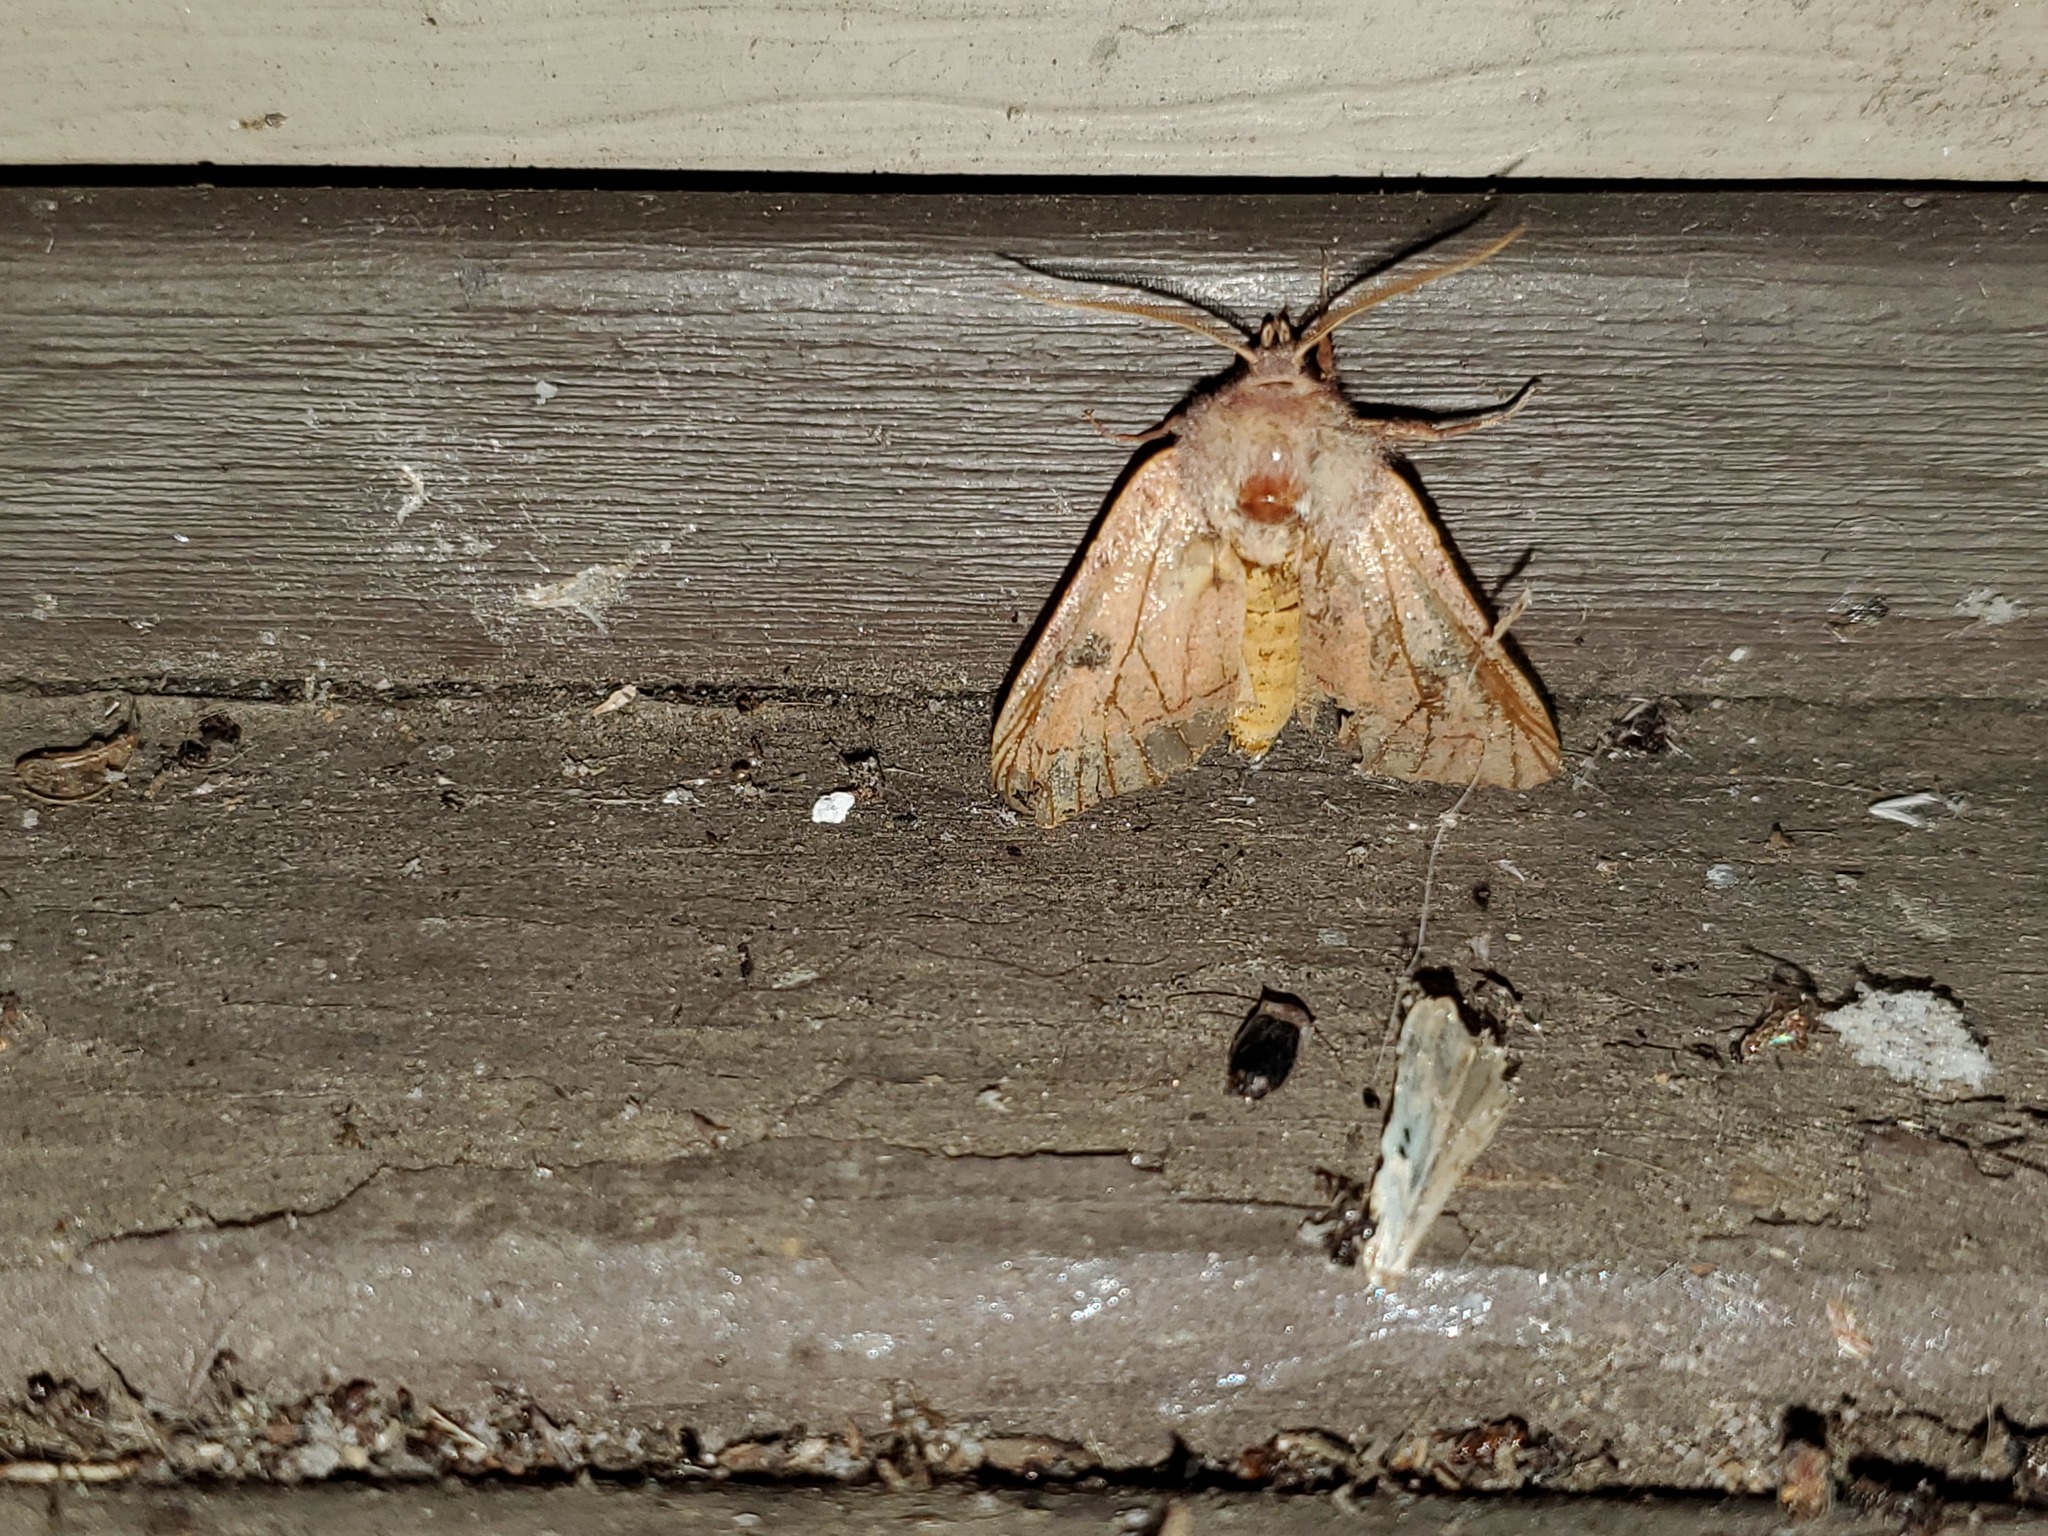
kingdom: Animalia
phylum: Arthropoda
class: Insecta
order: Lepidoptera
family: Noctuidae
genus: Choephora
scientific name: Choephora fungorum
